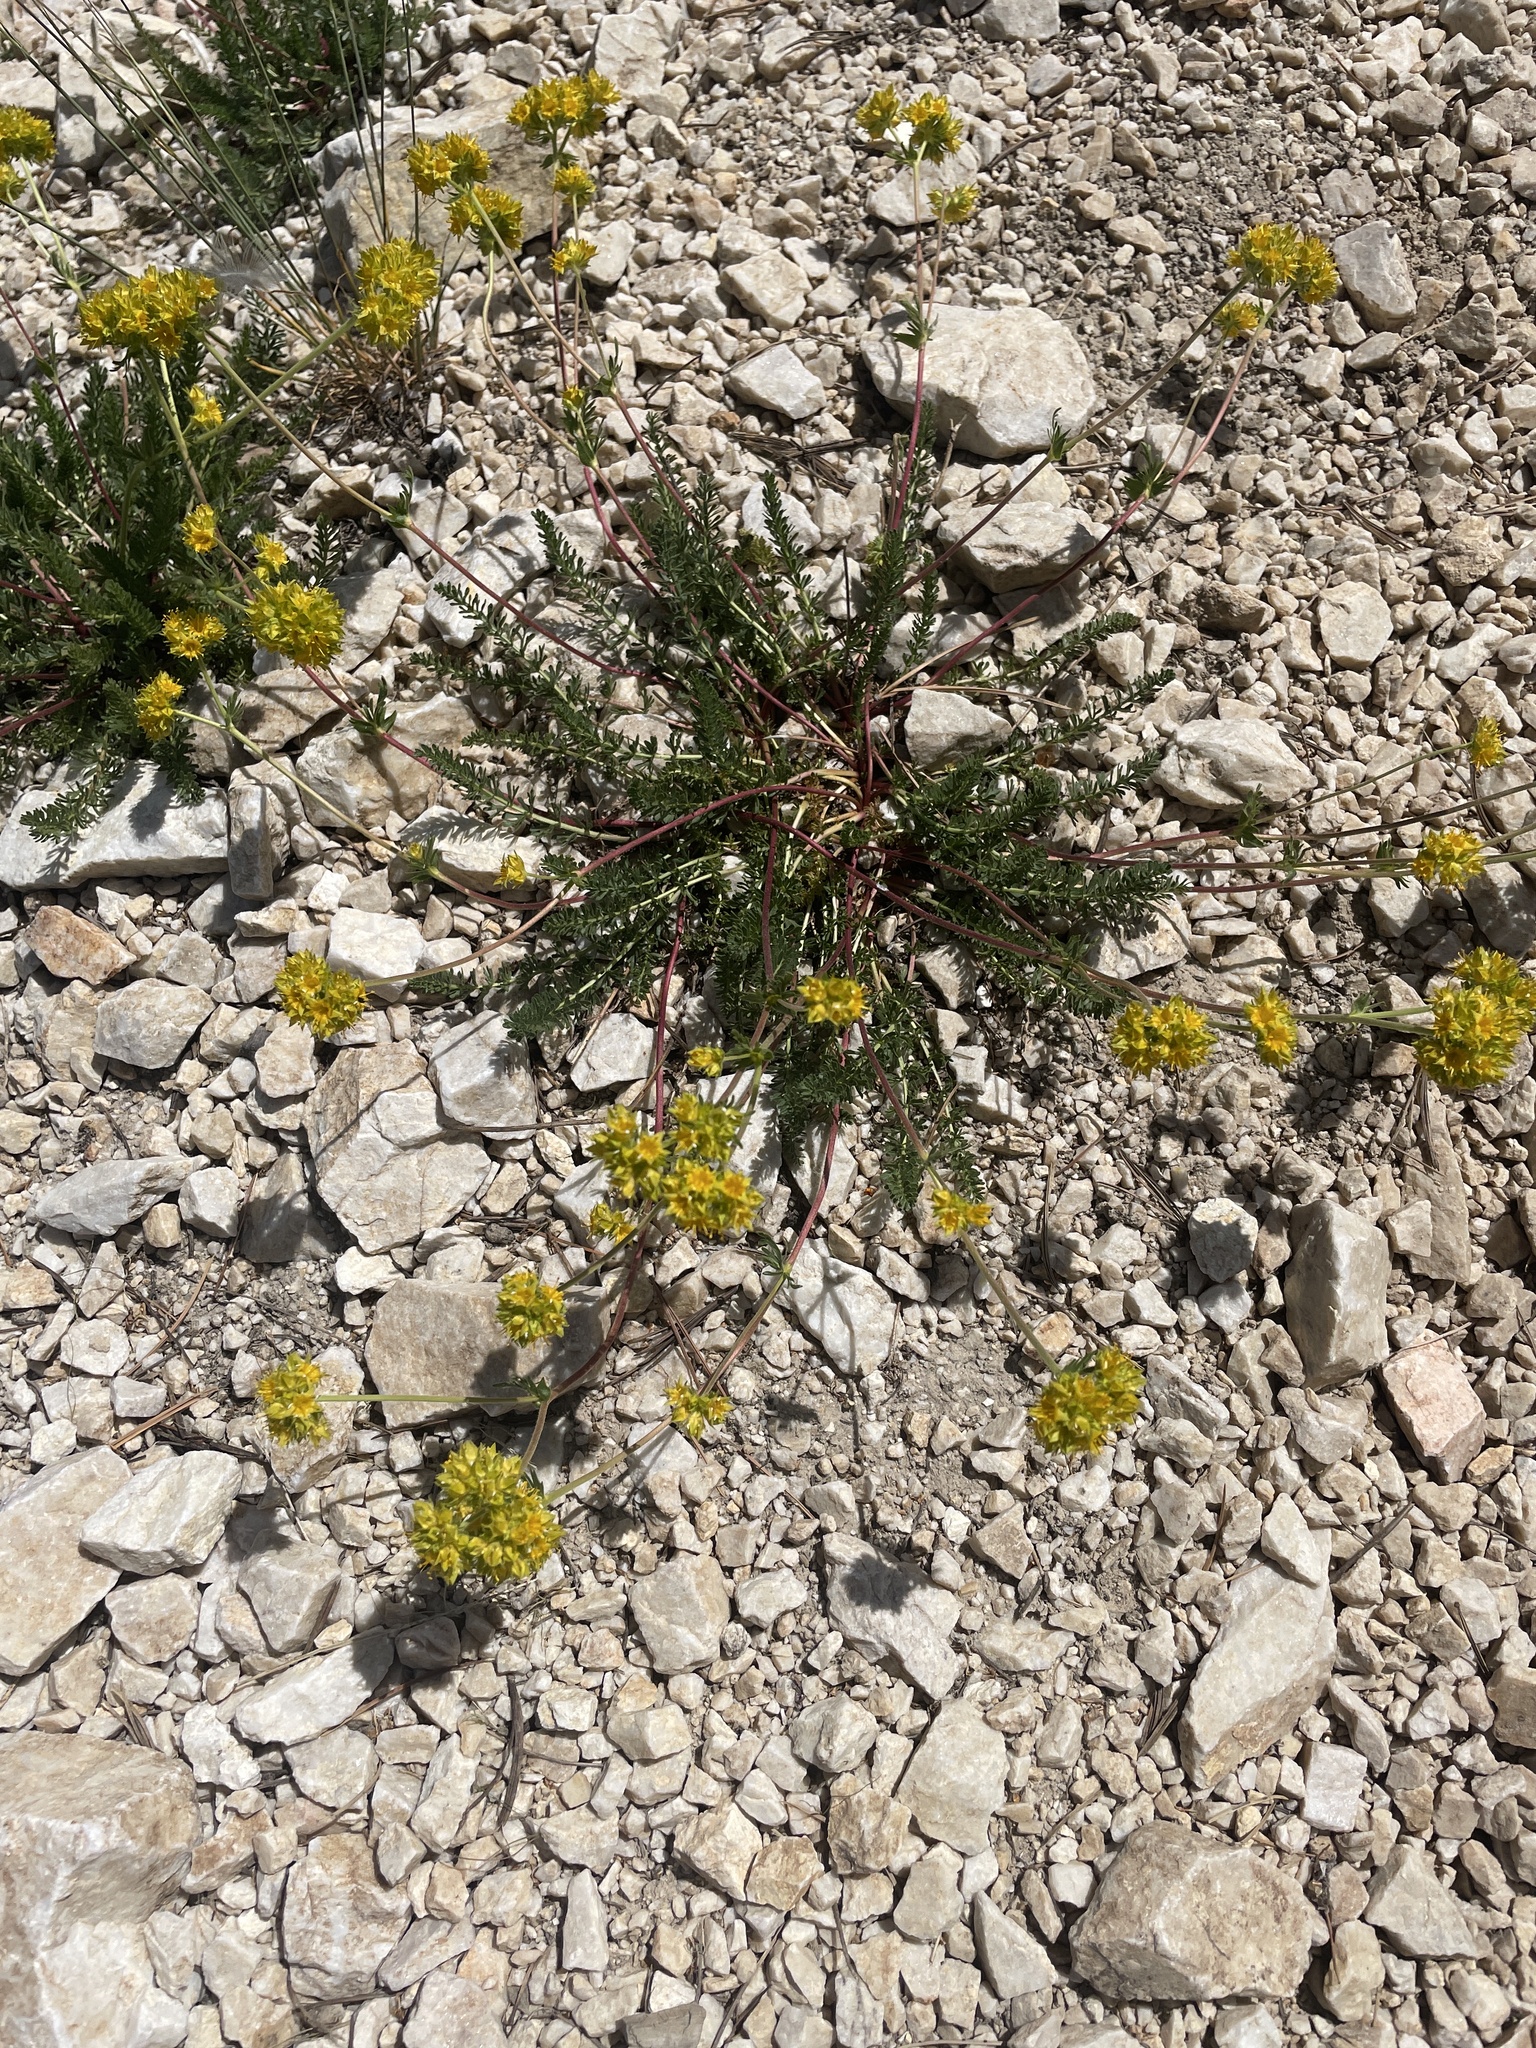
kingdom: Plantae
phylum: Tracheophyta
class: Magnoliopsida
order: Rosales
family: Rosaceae
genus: Potentilla
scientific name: Potentilla gordonii
